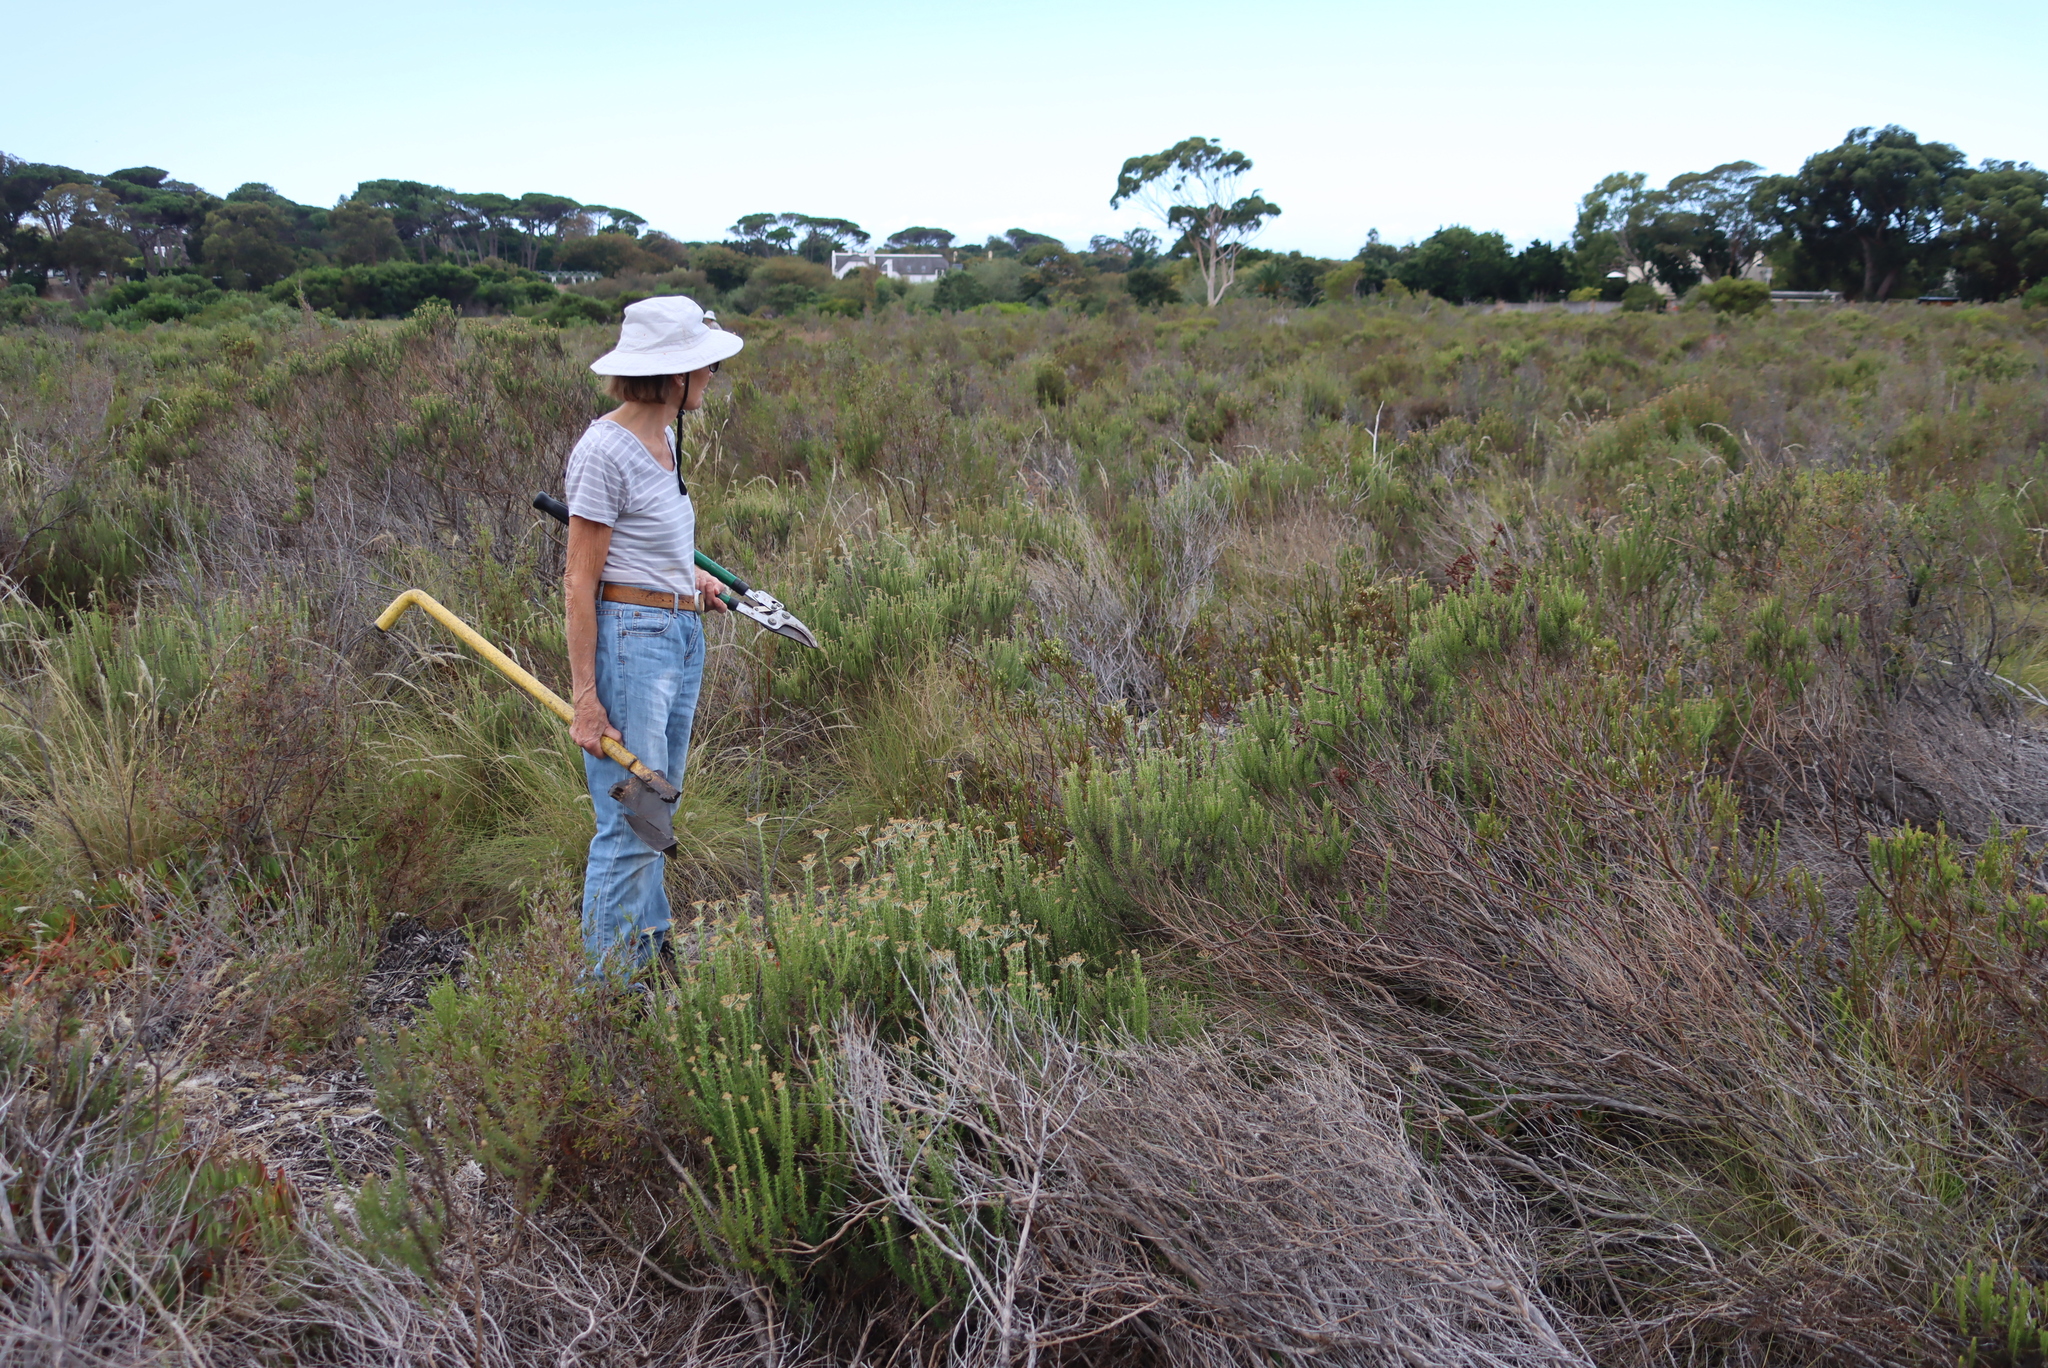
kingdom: Plantae
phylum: Tracheophyta
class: Magnoliopsida
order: Asterales
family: Asteraceae
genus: Metalasia
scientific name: Metalasia densa
